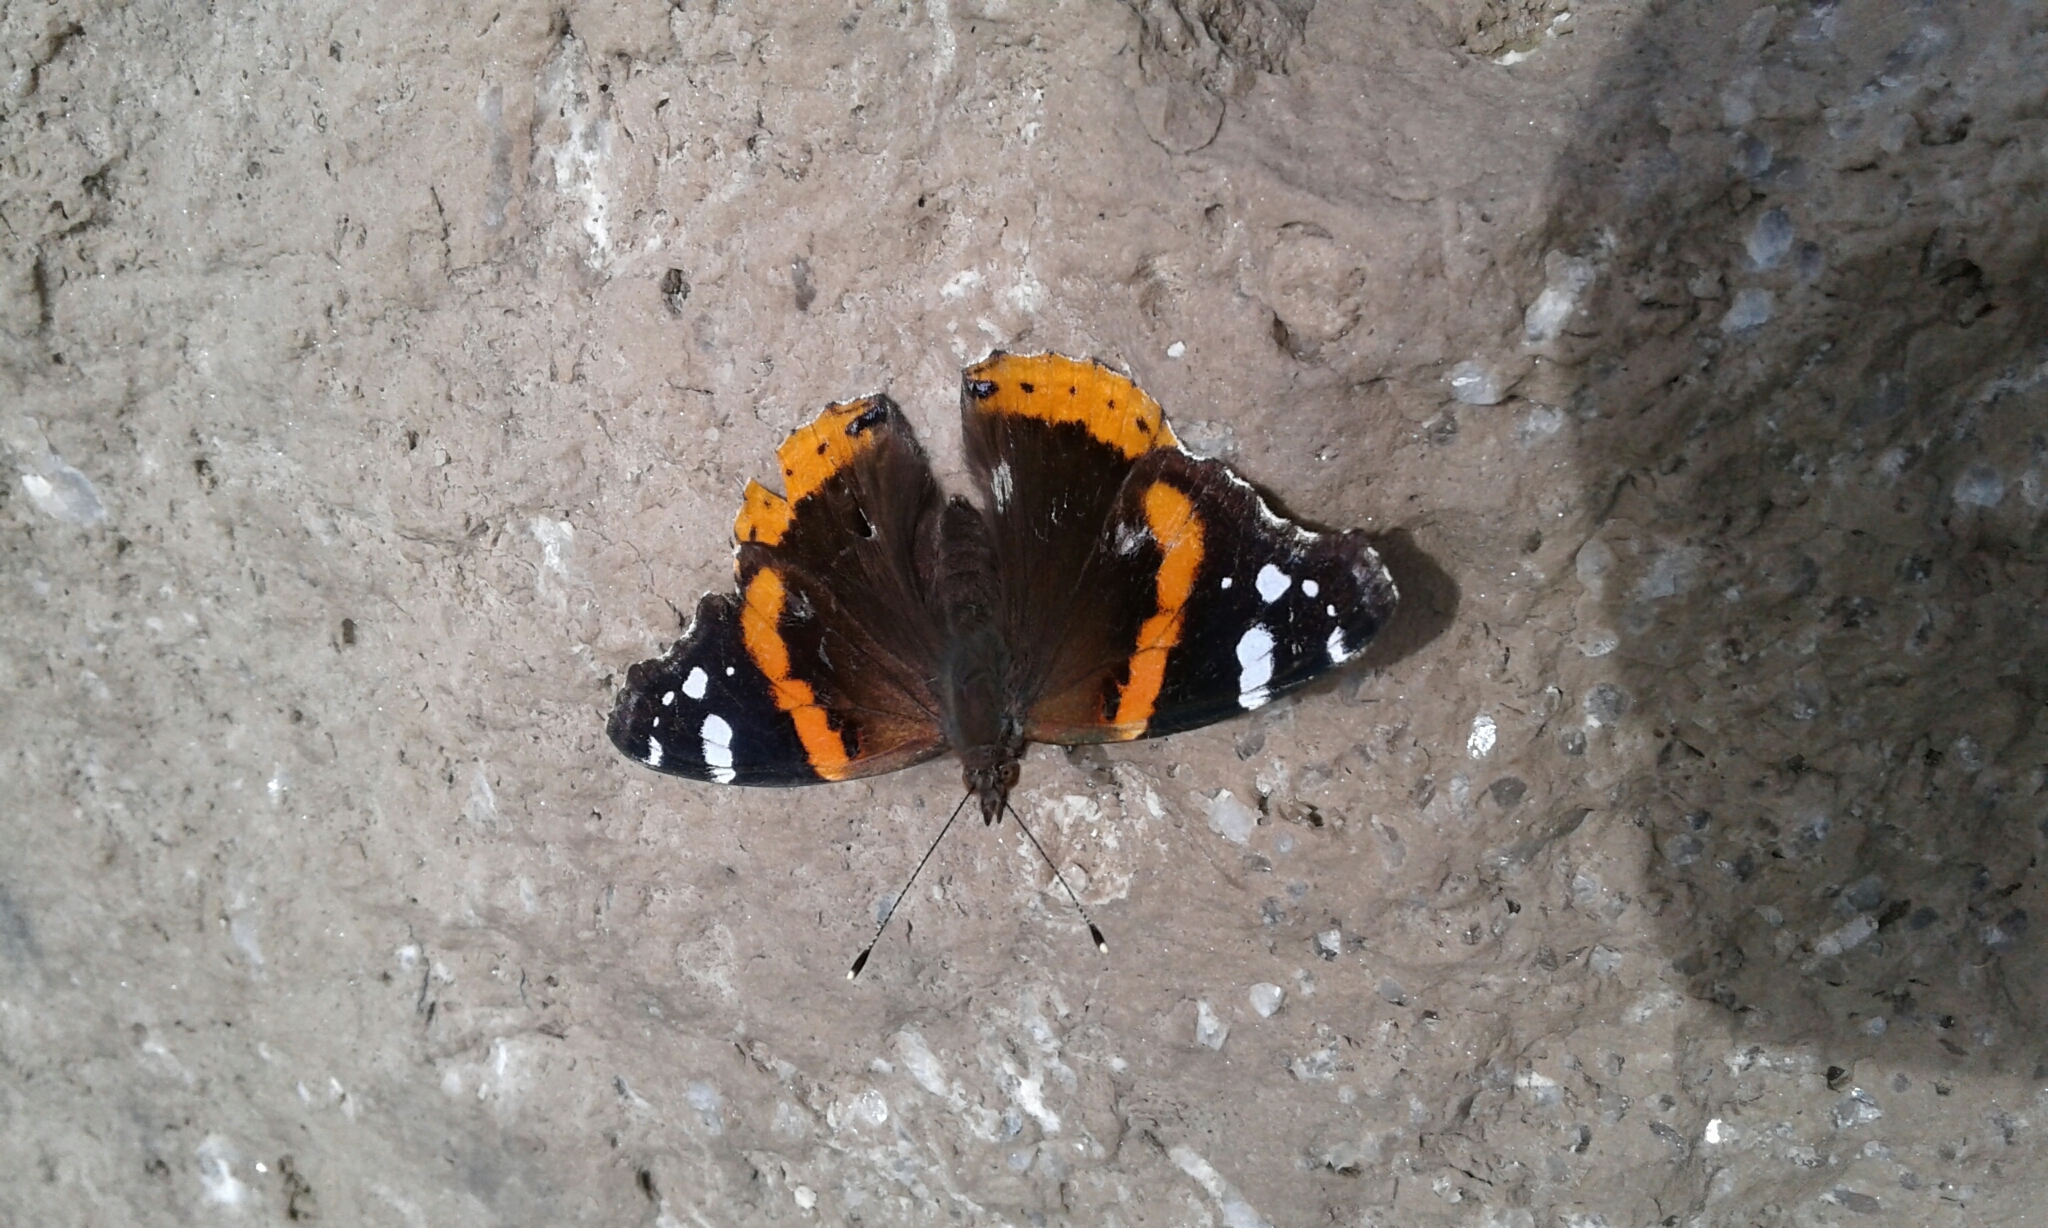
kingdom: Animalia
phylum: Arthropoda
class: Insecta
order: Lepidoptera
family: Nymphalidae
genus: Vanessa
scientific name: Vanessa atalanta
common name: Red admiral
